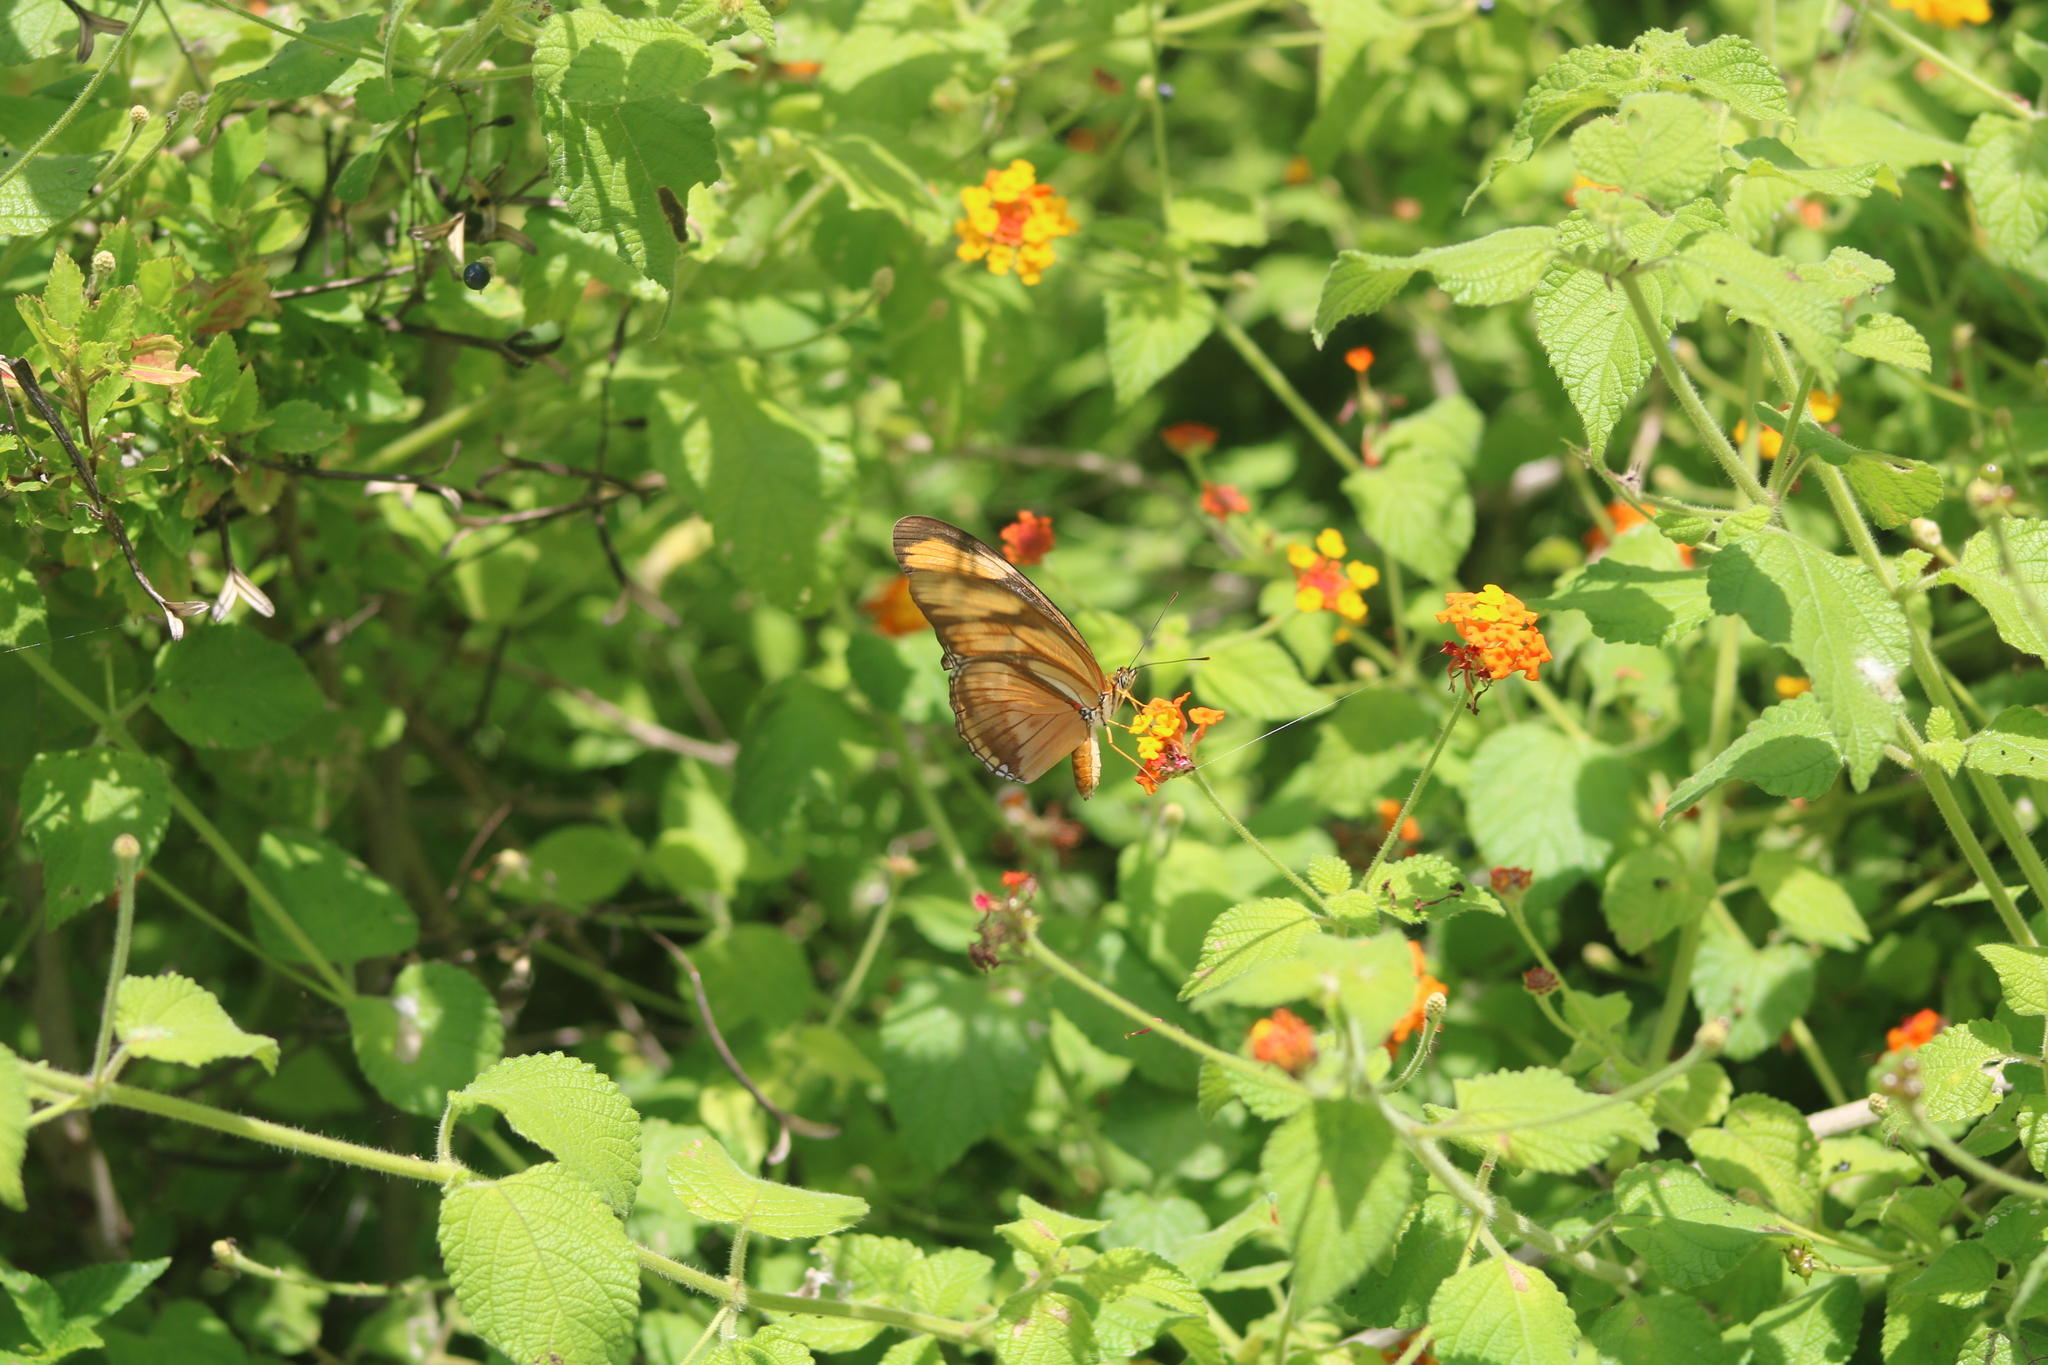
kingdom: Animalia
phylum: Arthropoda
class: Insecta
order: Lepidoptera
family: Nymphalidae
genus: Dryas
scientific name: Dryas iulia
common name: Flambeau
